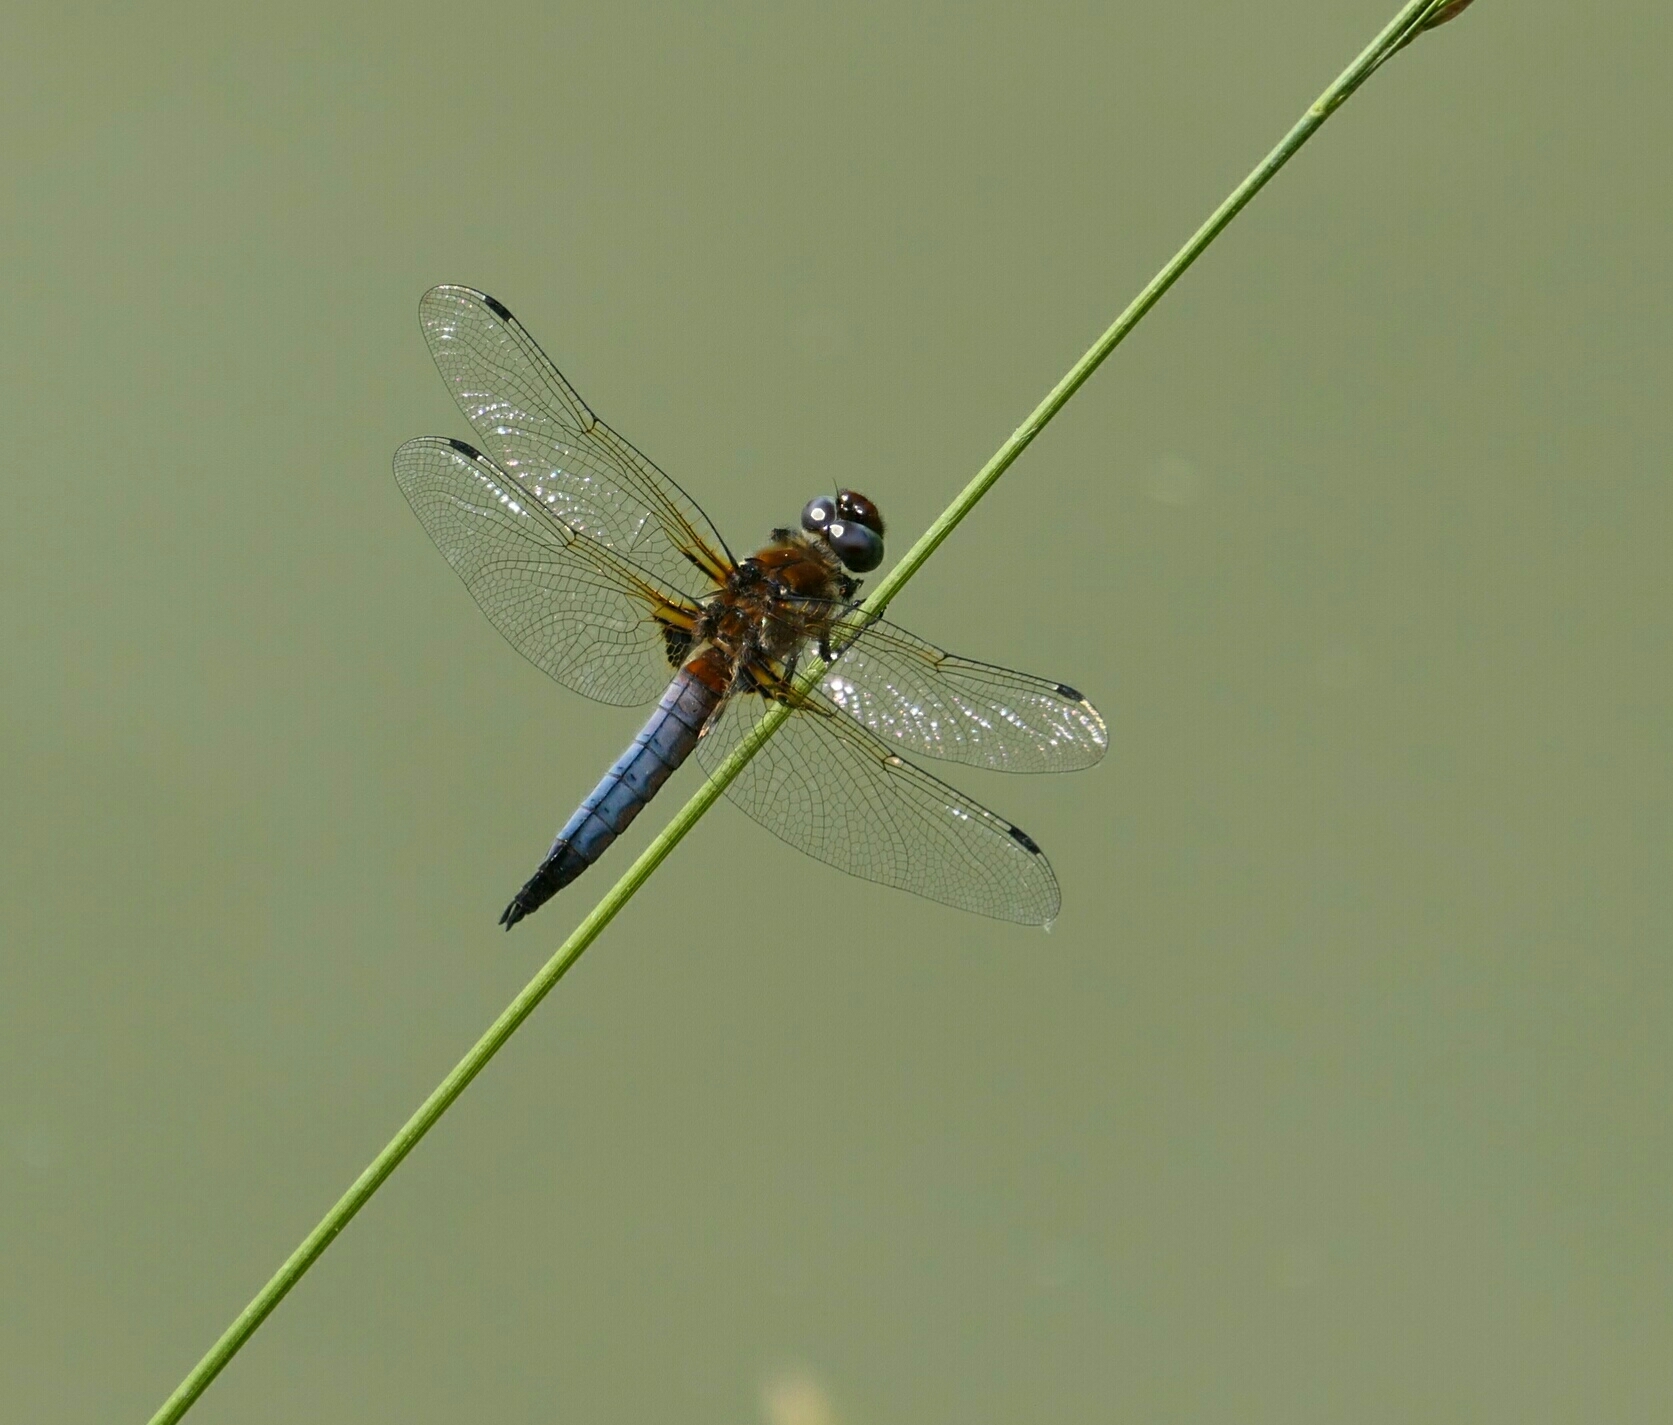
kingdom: Animalia
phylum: Arthropoda
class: Insecta
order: Odonata
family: Libellulidae
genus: Libellula
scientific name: Libellula fulva
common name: Blue chaser
